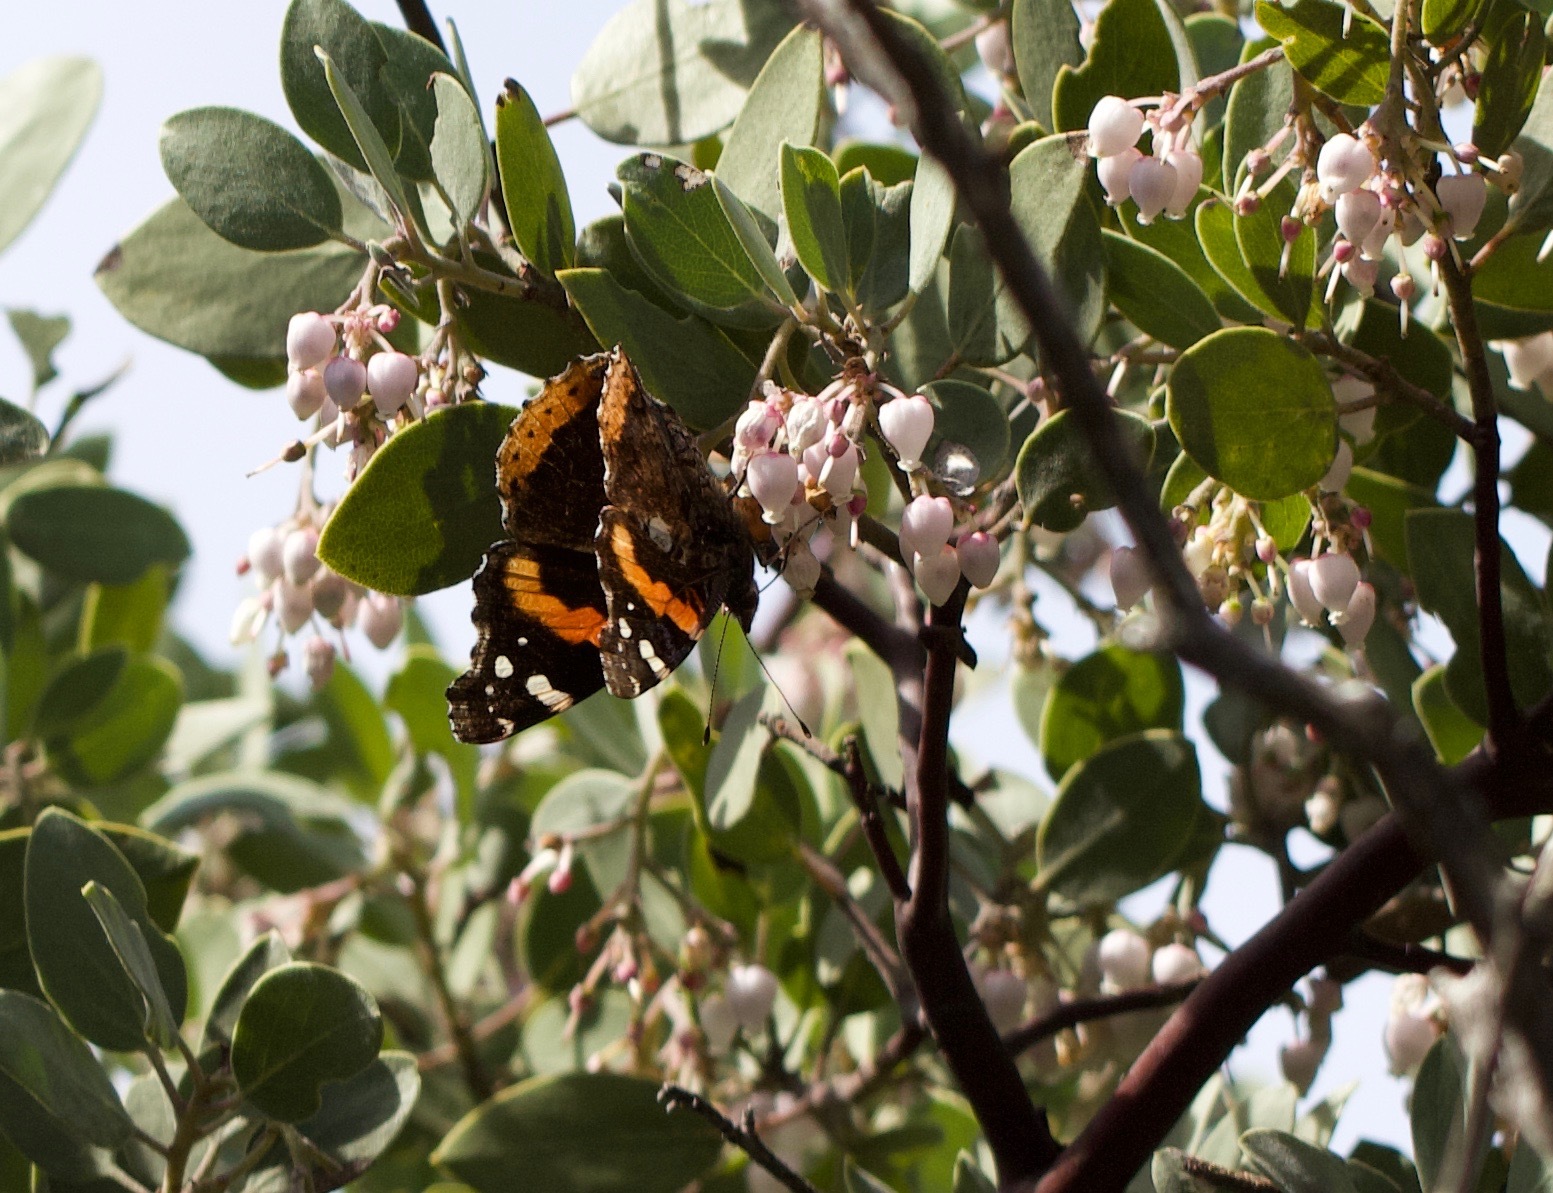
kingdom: Animalia
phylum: Arthropoda
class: Insecta
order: Lepidoptera
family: Nymphalidae
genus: Vanessa
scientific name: Vanessa atalanta
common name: Red admiral
